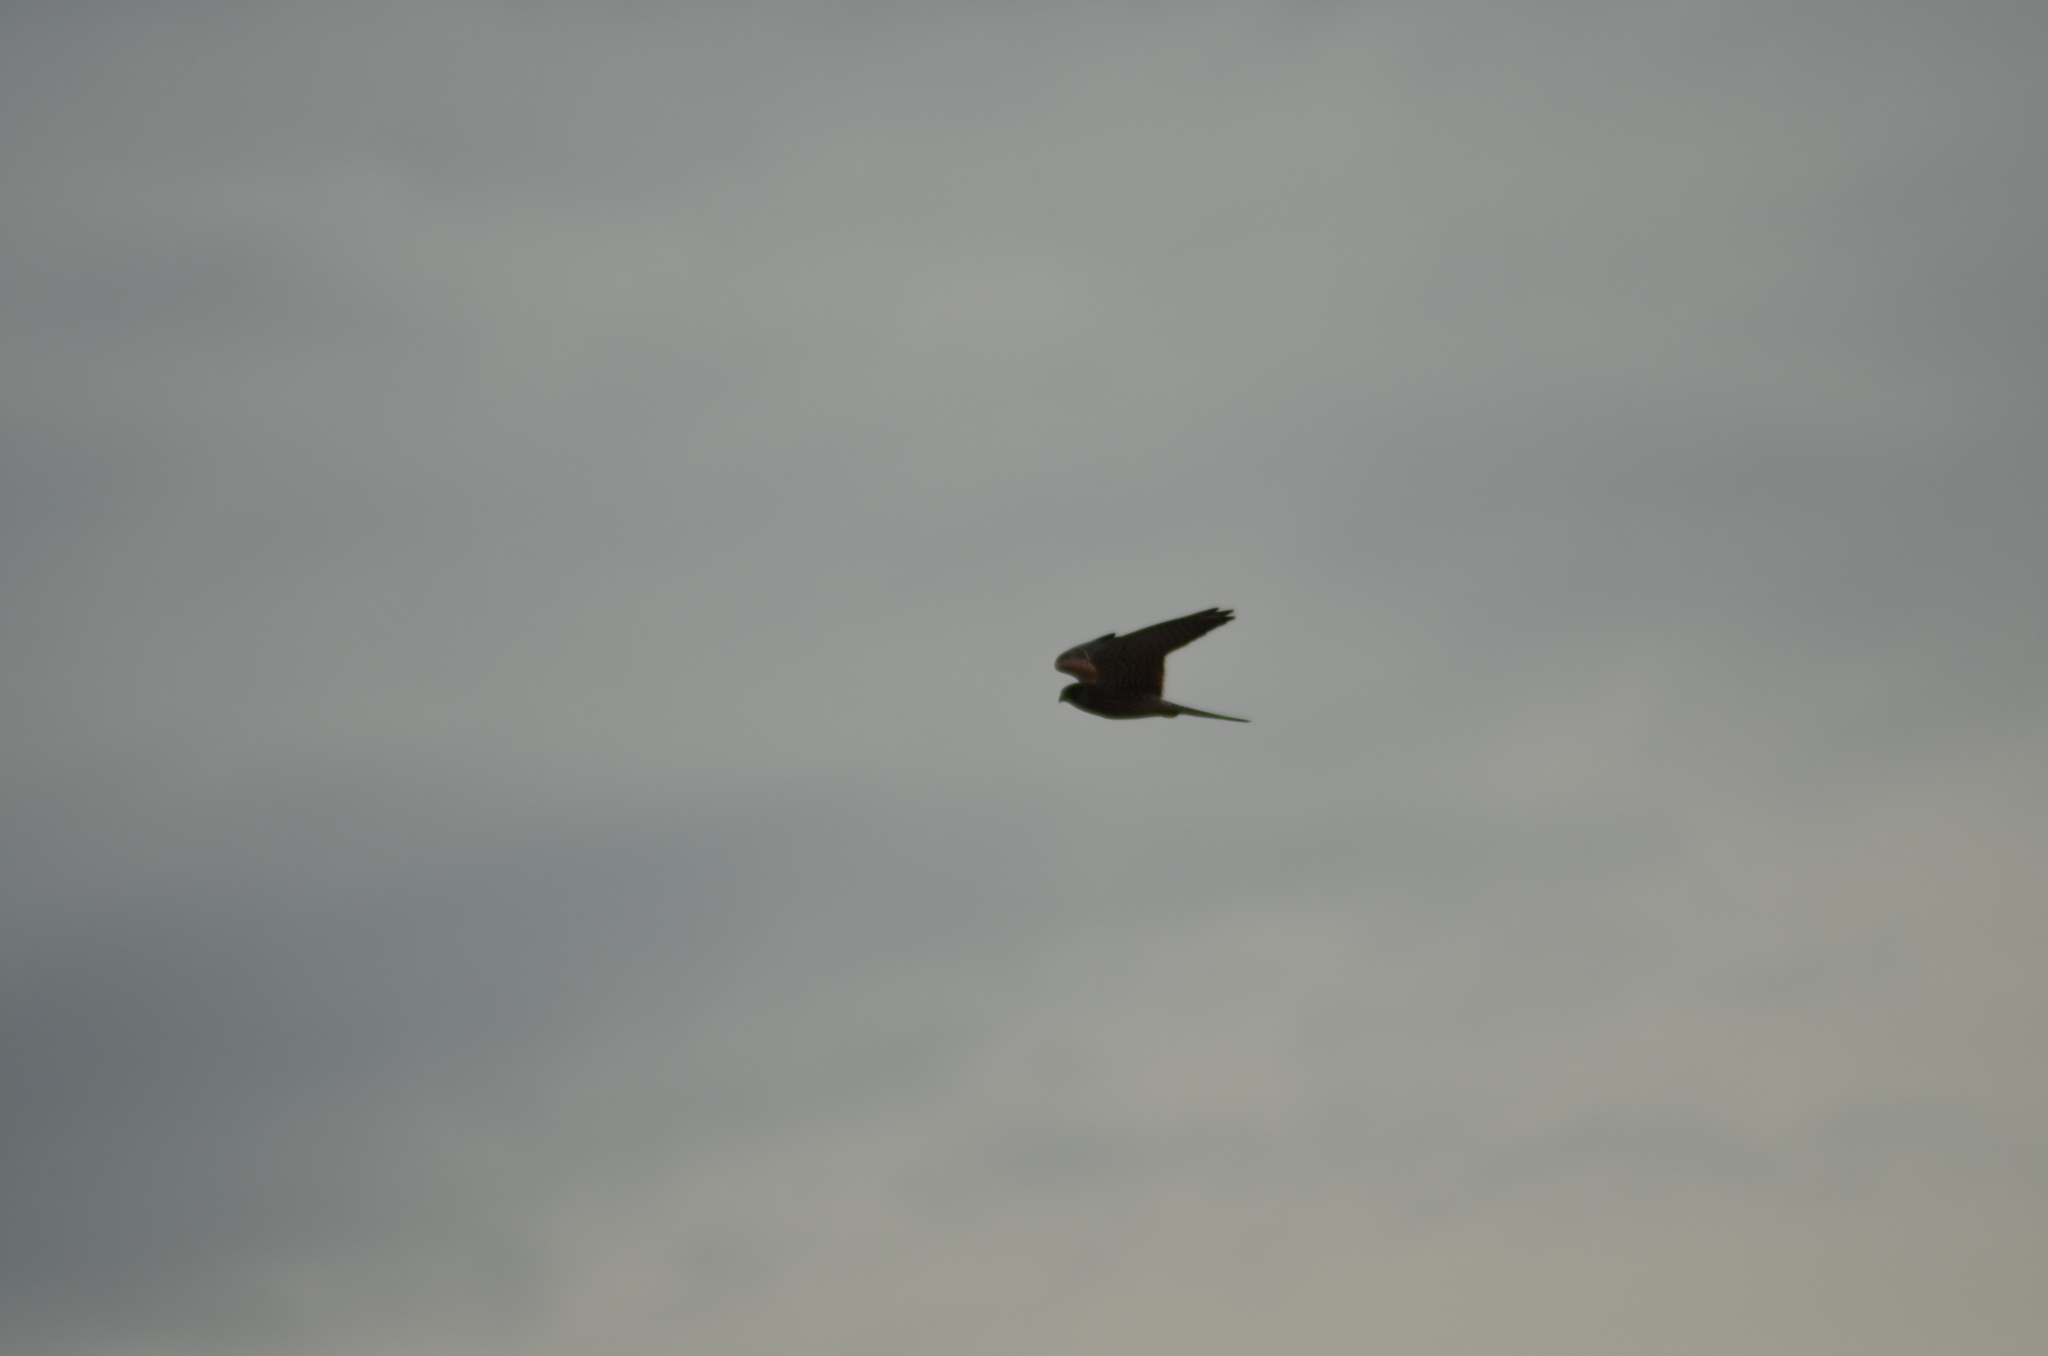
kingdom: Animalia
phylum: Chordata
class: Aves
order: Falconiformes
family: Falconidae
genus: Falco
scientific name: Falco tinnunculus
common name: Common kestrel
